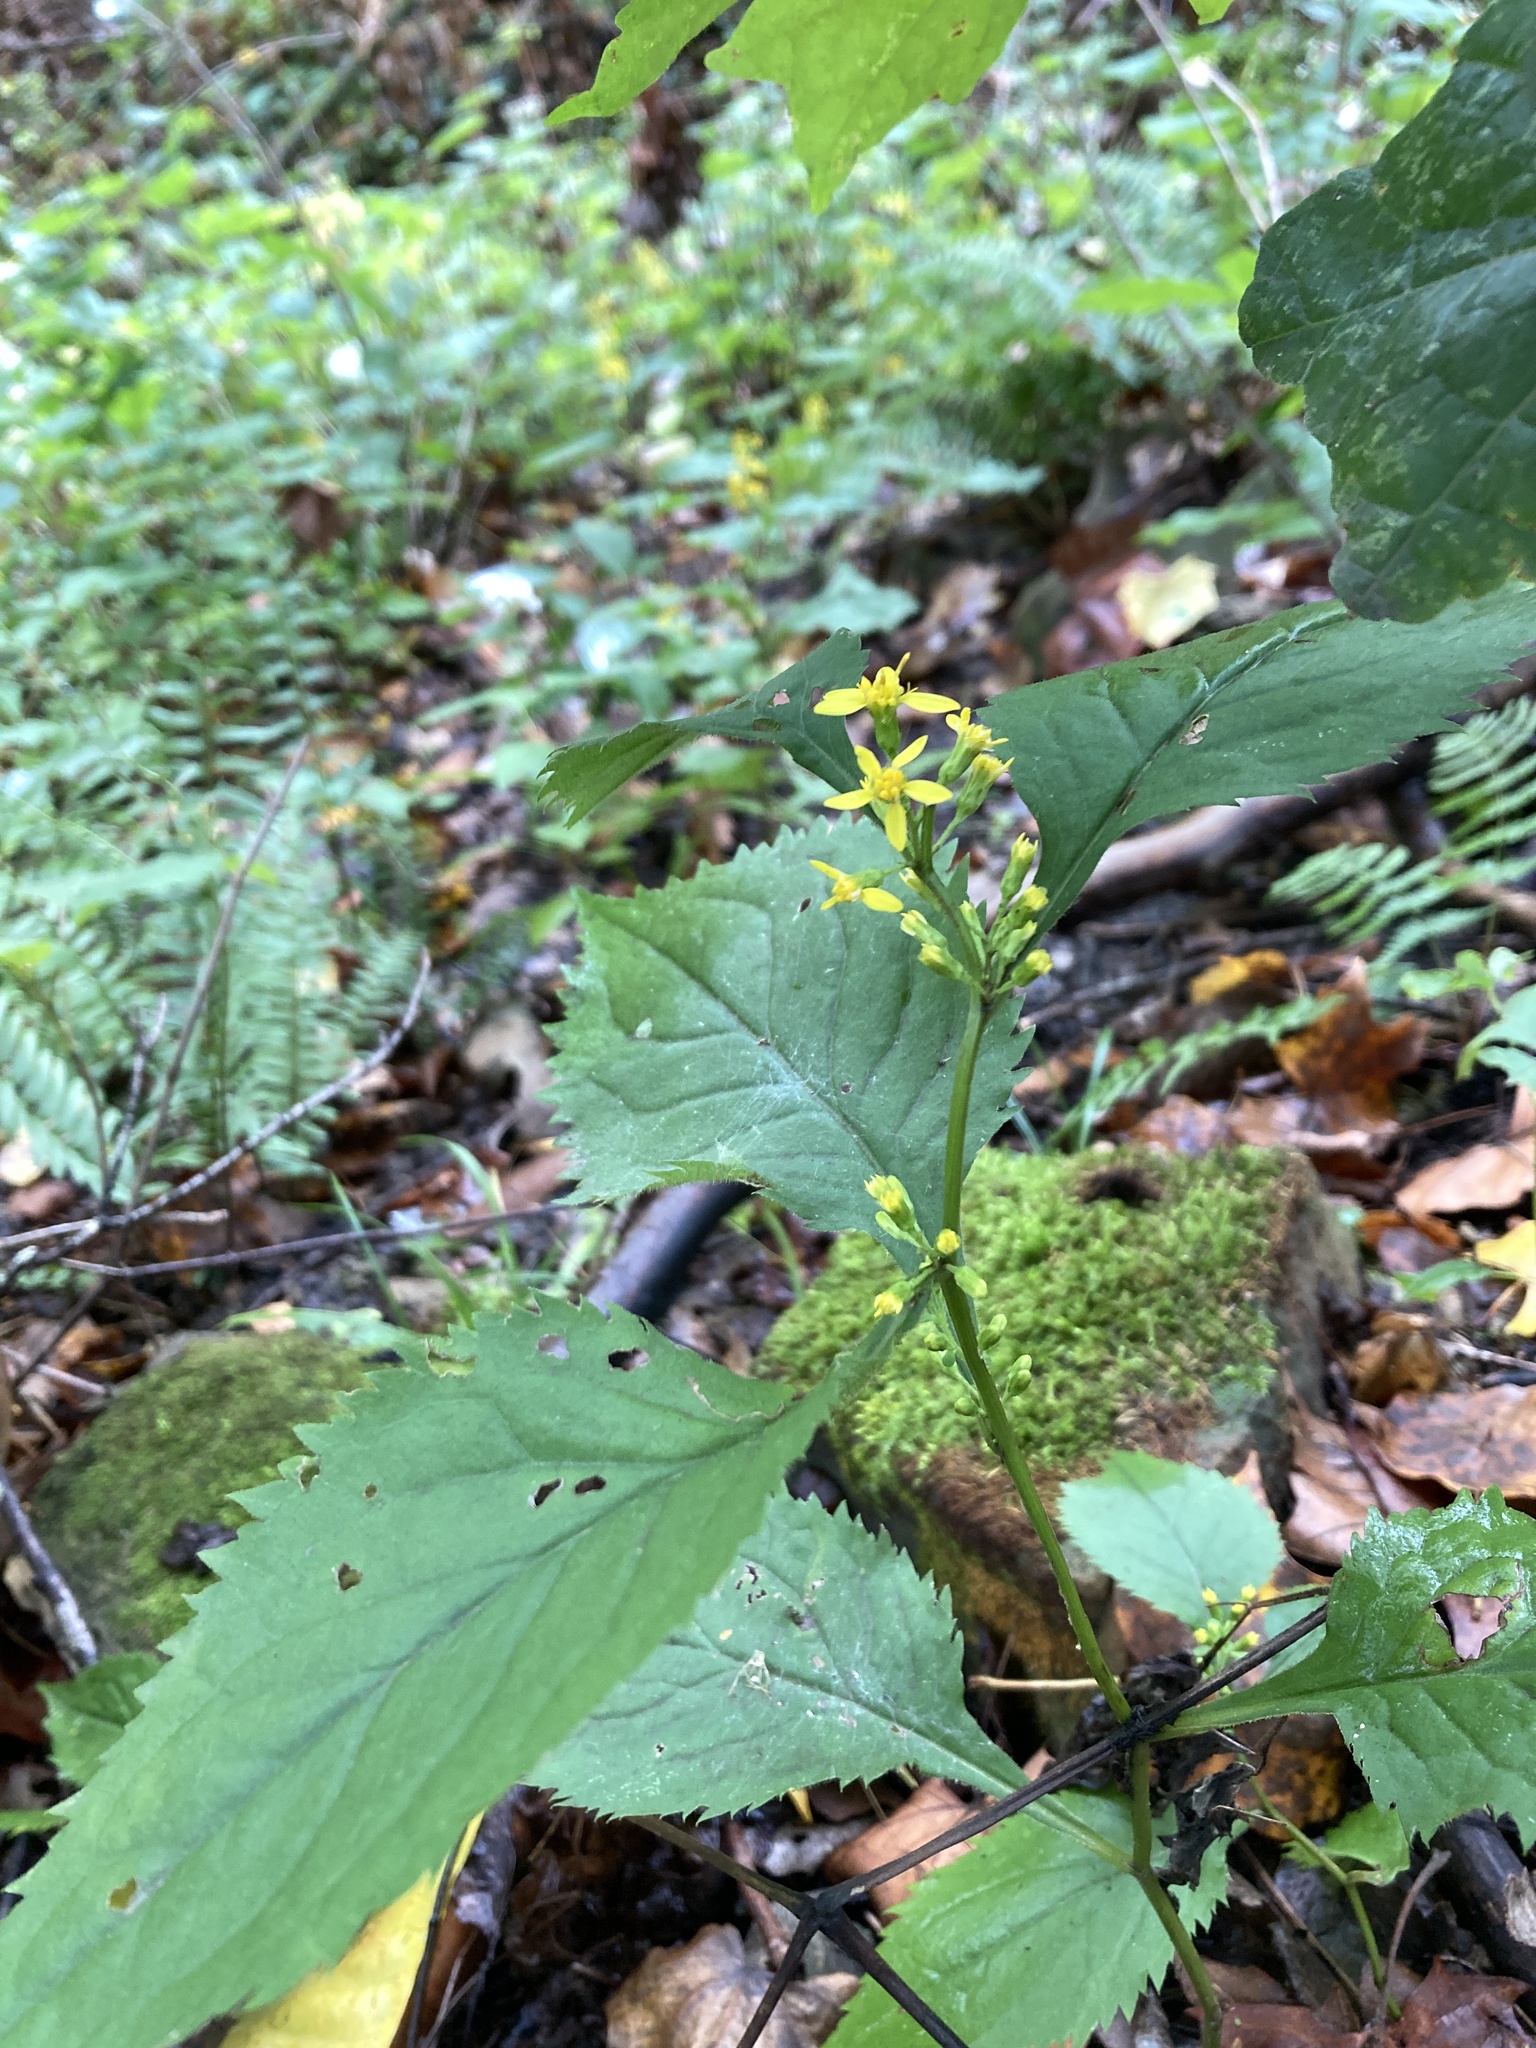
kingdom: Plantae
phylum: Tracheophyta
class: Magnoliopsida
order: Asterales
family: Asteraceae
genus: Solidago
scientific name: Solidago flexicaulis
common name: Zig-zag goldenrod
